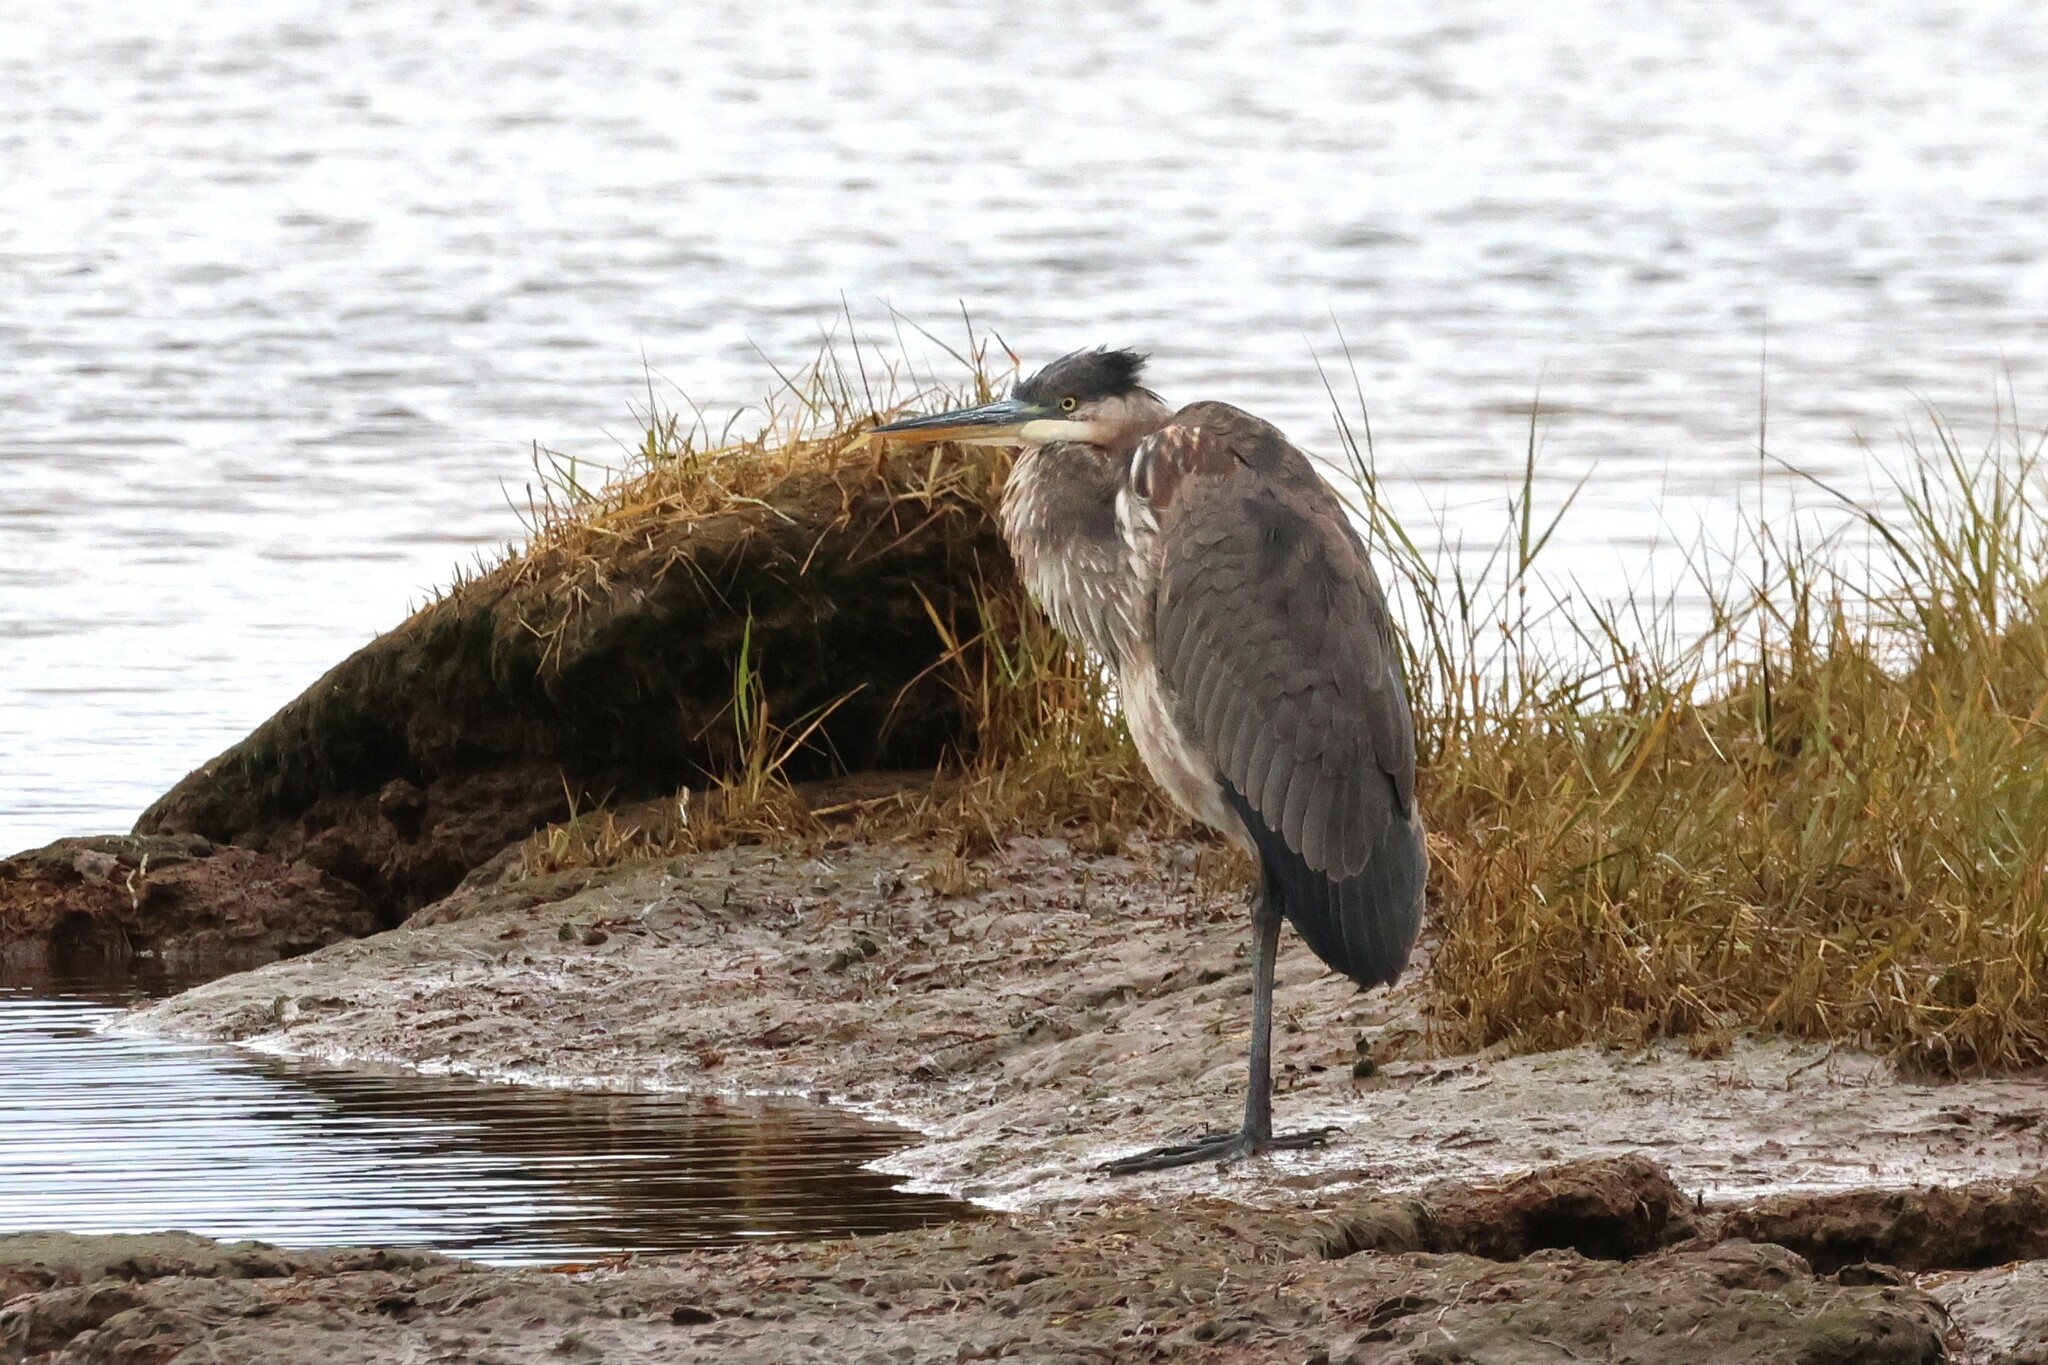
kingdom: Animalia
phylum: Chordata
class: Aves
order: Pelecaniformes
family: Ardeidae
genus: Ardea
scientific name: Ardea herodias
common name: Great blue heron
